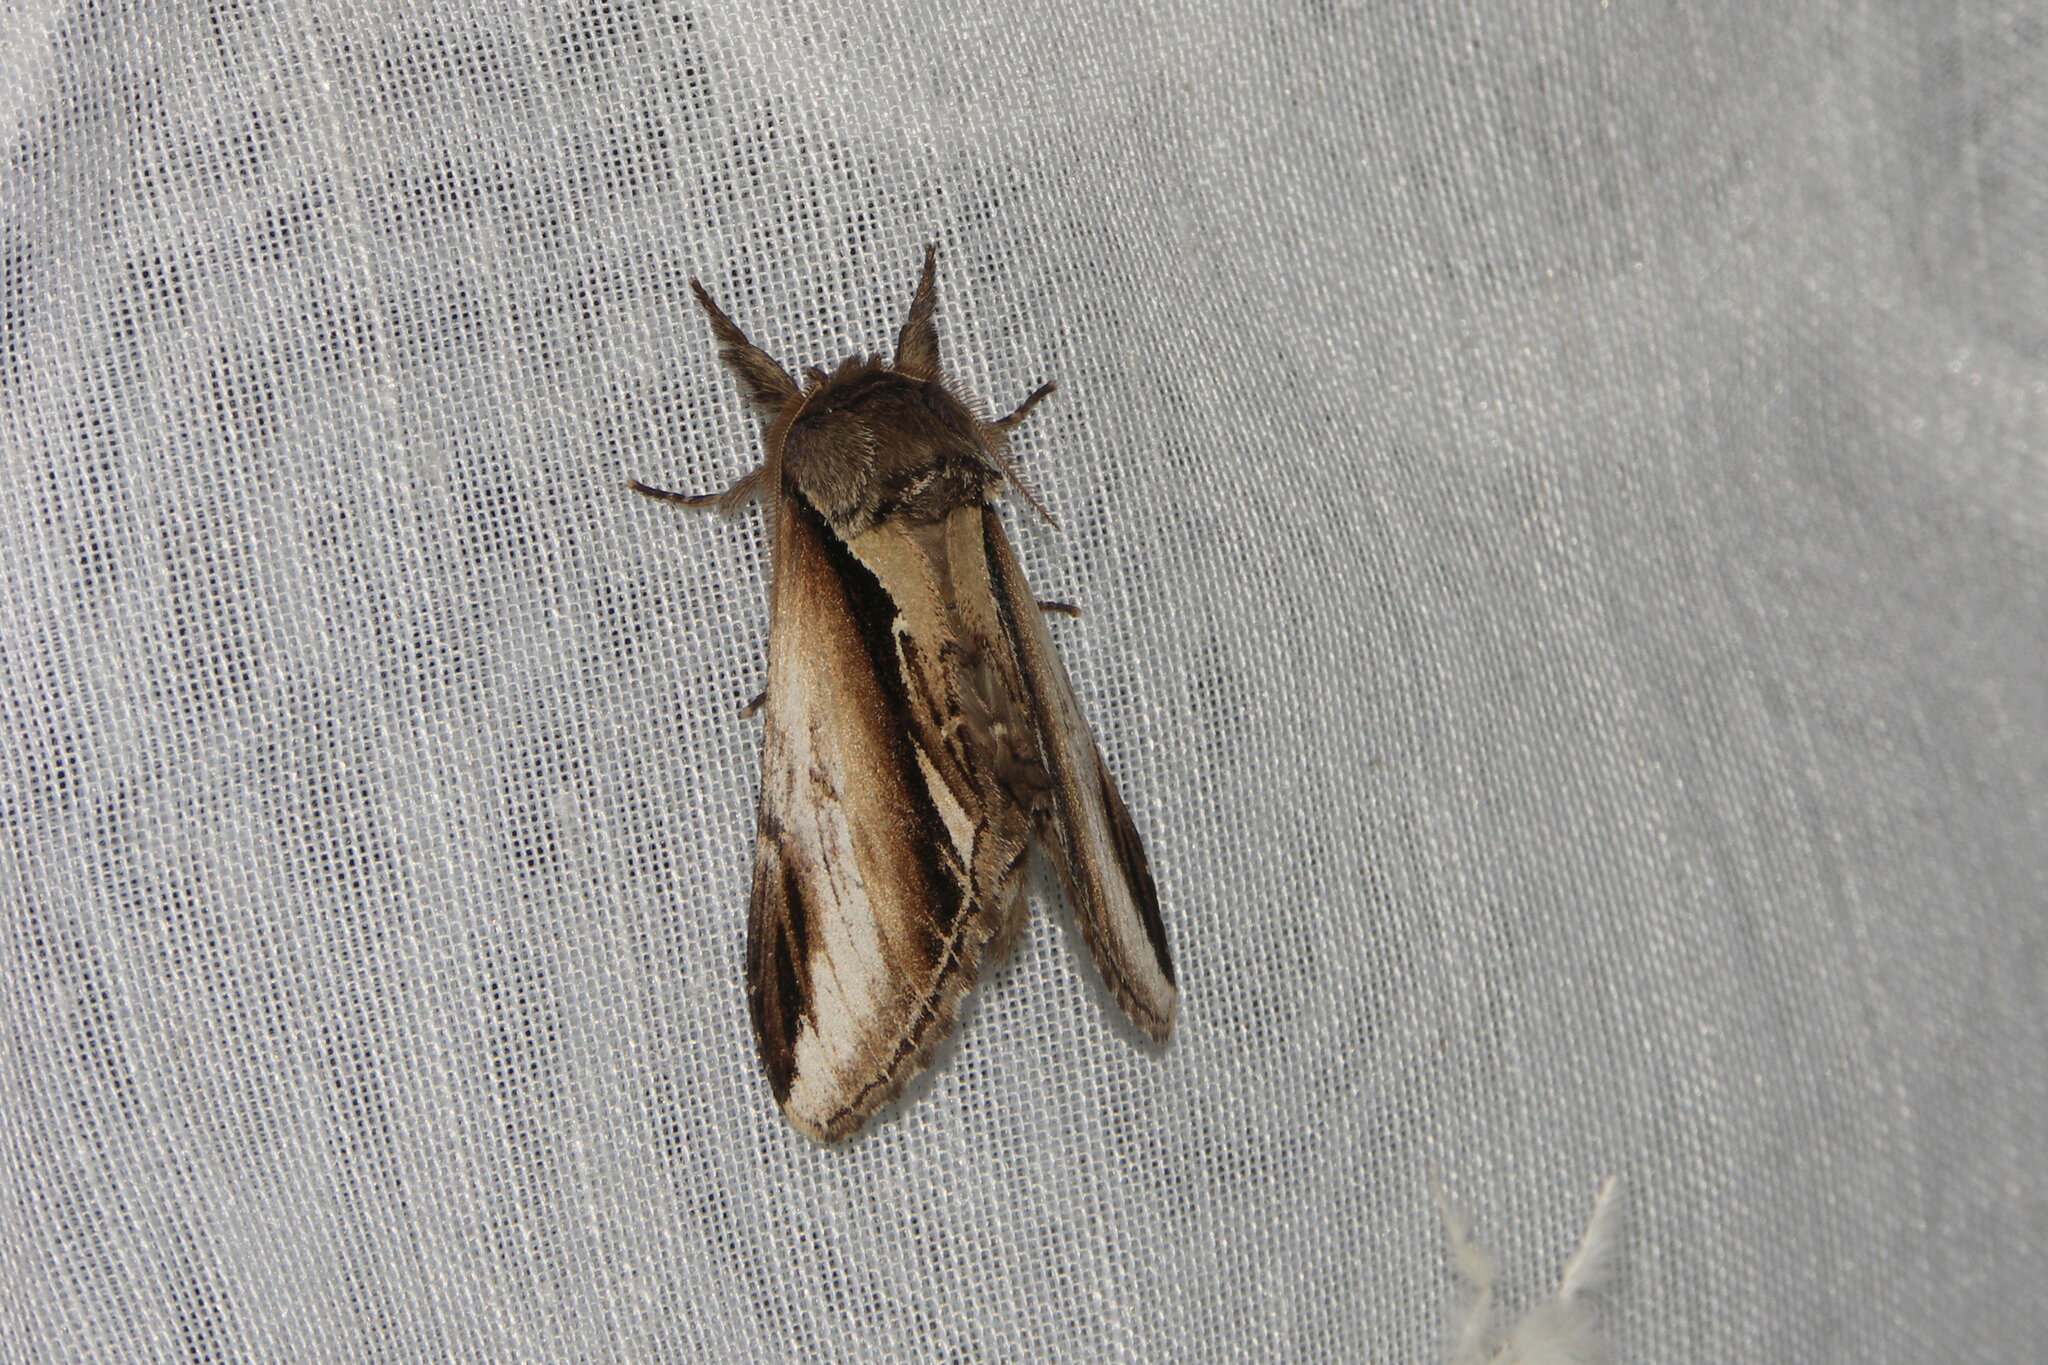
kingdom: Animalia
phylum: Arthropoda
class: Insecta
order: Lepidoptera
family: Notodontidae
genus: Pheosia
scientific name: Pheosia gnoma
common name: Lesser swallow prominent
